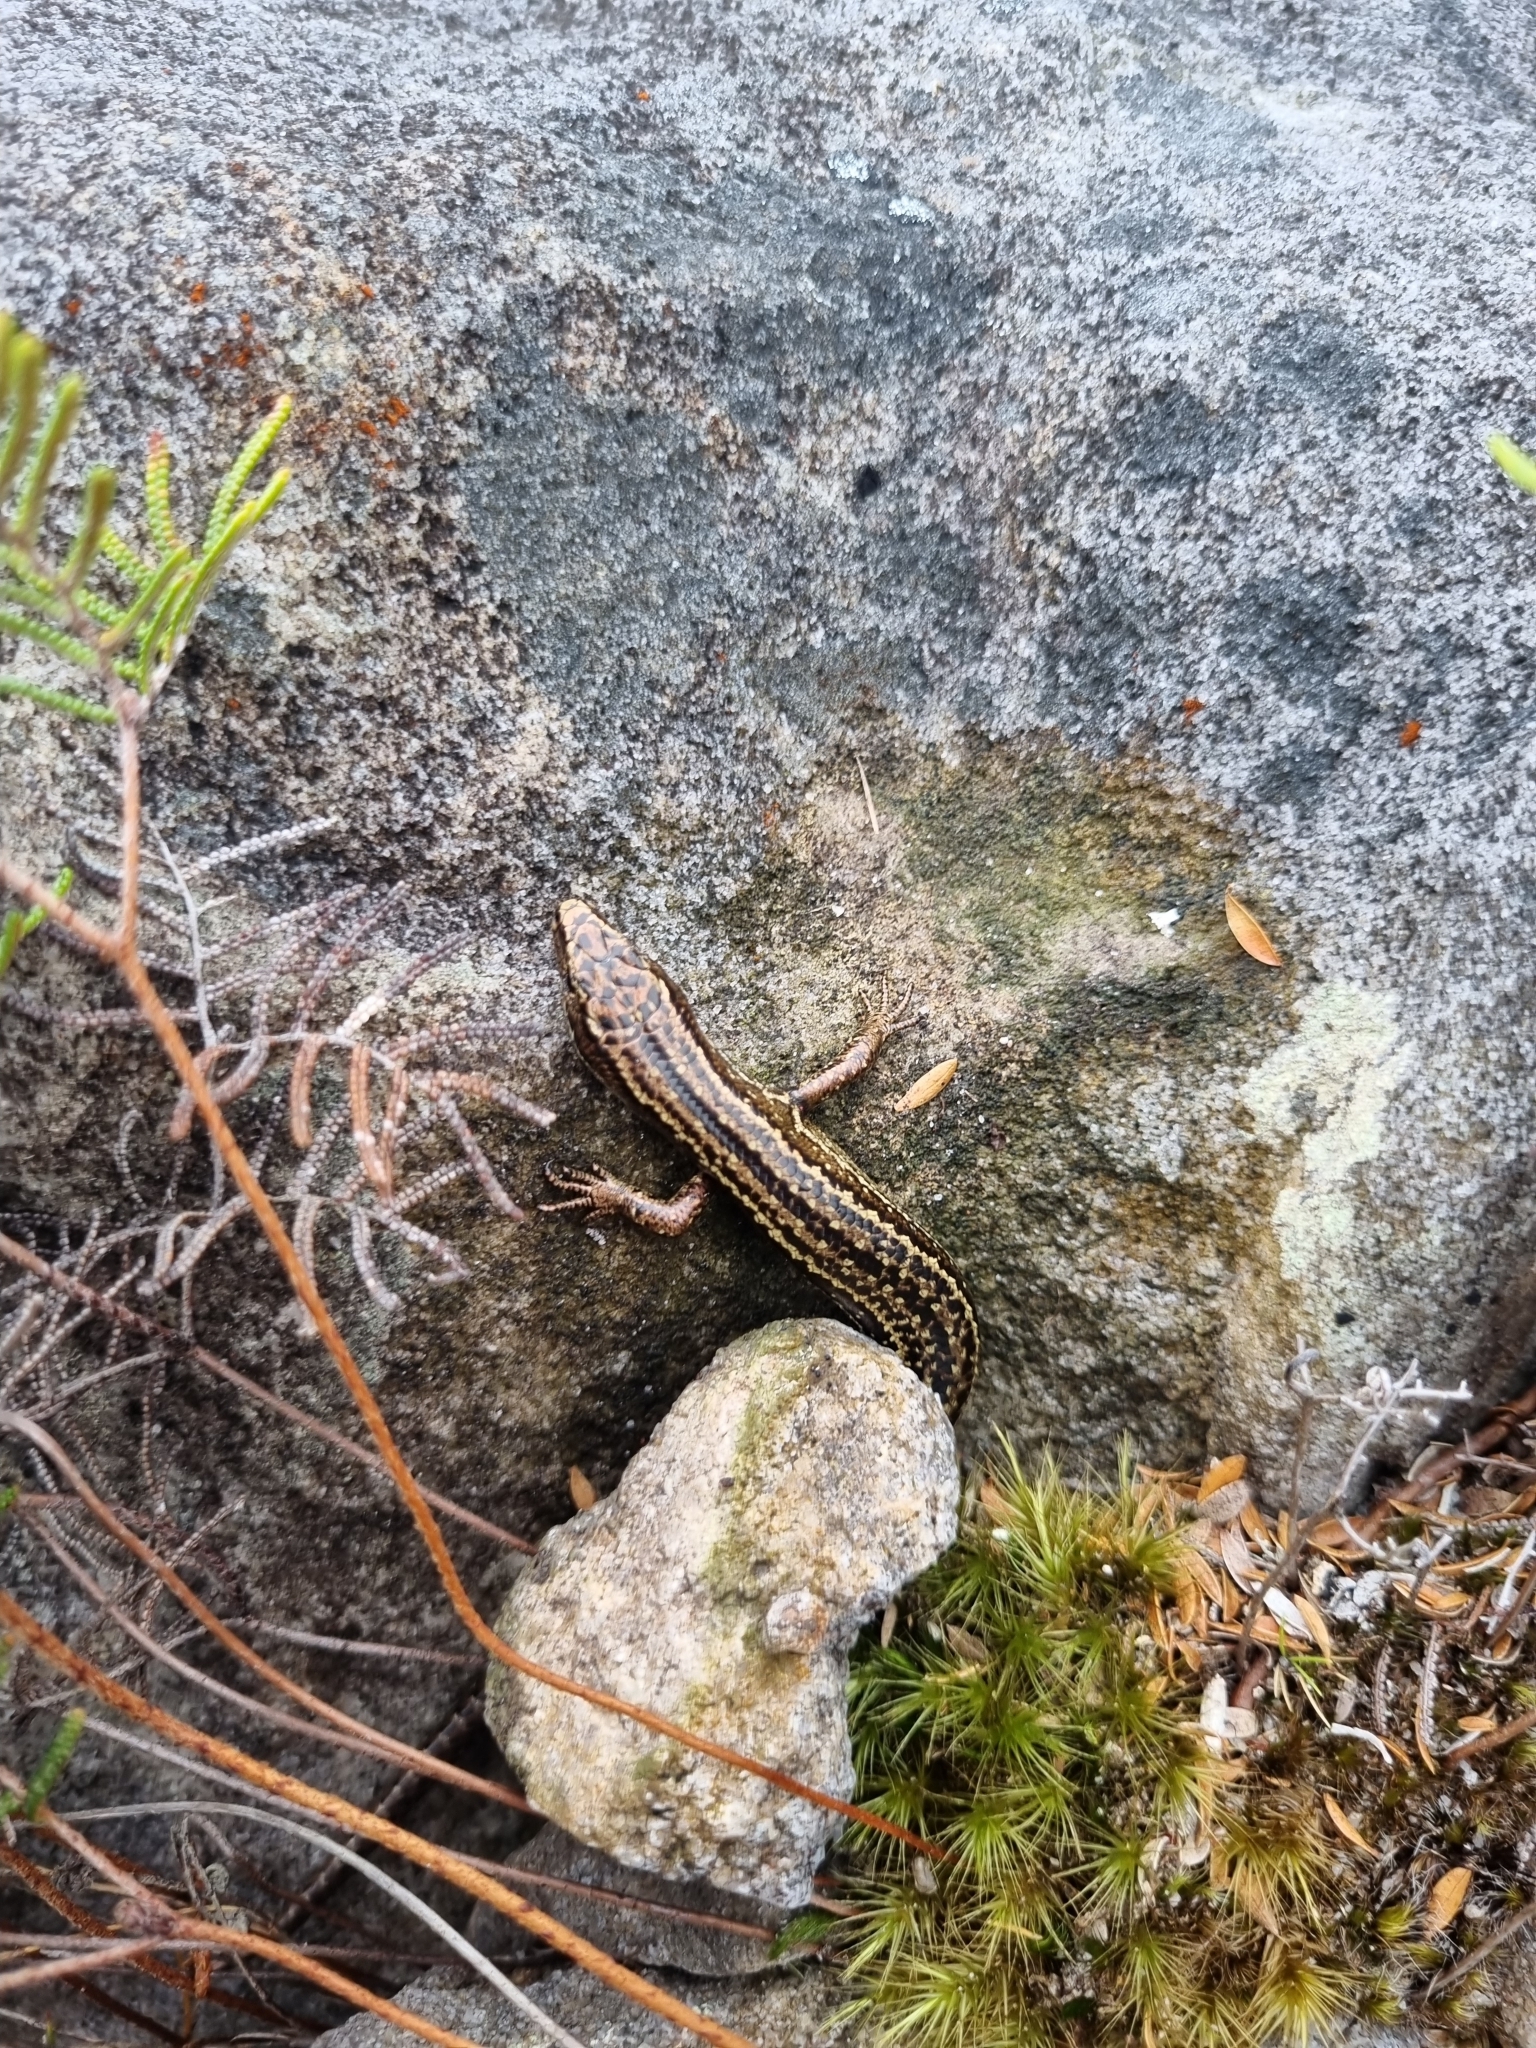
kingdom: Animalia
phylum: Chordata
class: Squamata
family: Scincidae
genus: Oligosoma
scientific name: Oligosoma newmani
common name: Newman’s speckled skink
